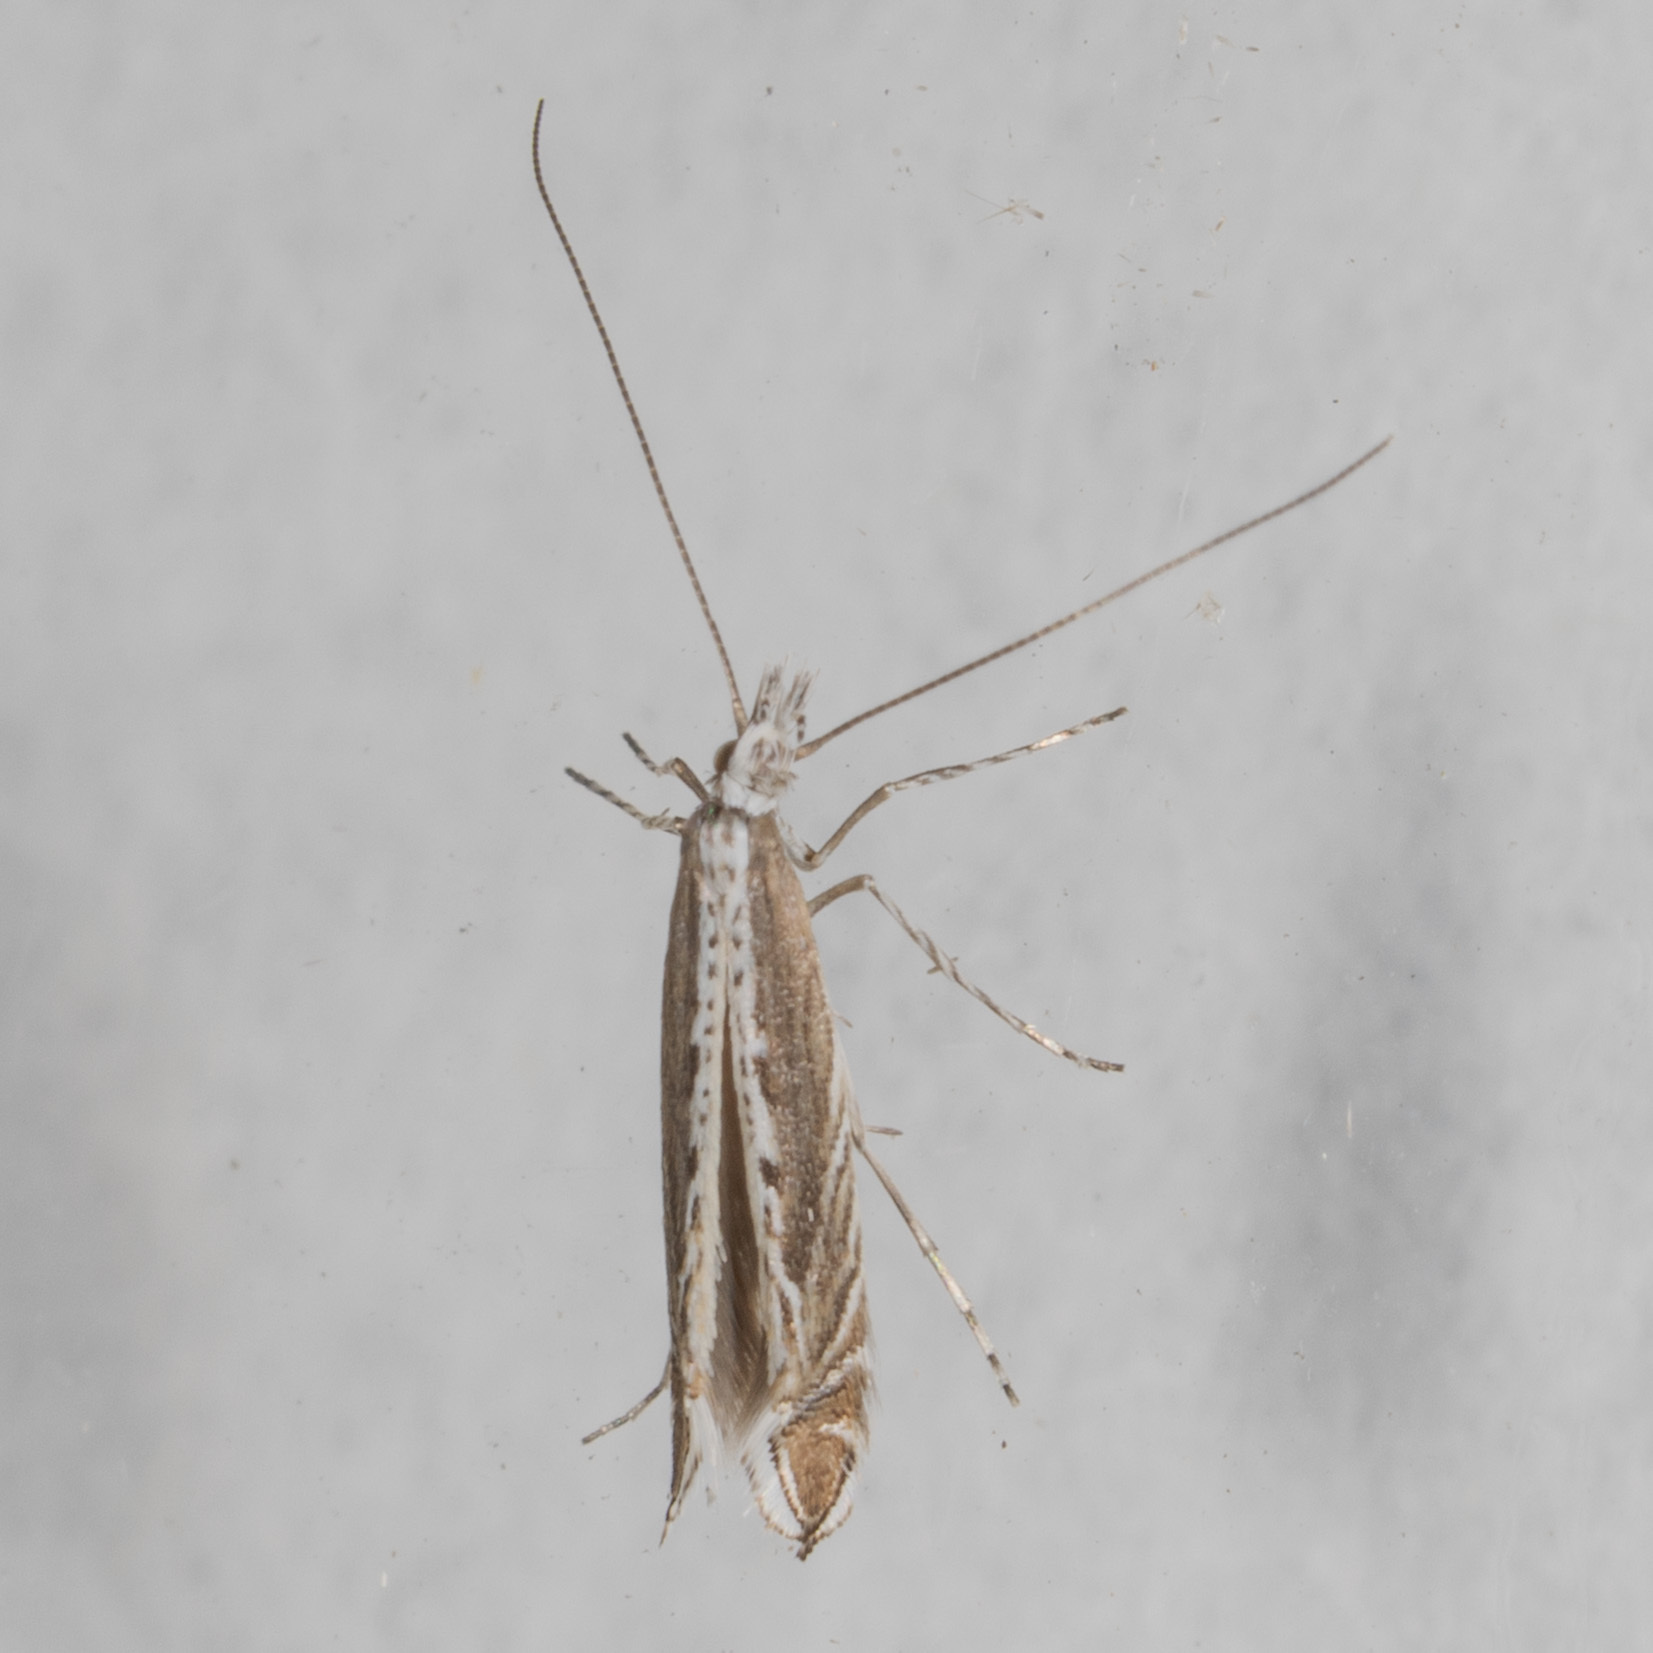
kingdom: Plantae
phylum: Rhodophyta
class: Florideophyceae
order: Gracilariales
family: Gracilariaceae
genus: Gracilaria
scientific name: Gracilaria
